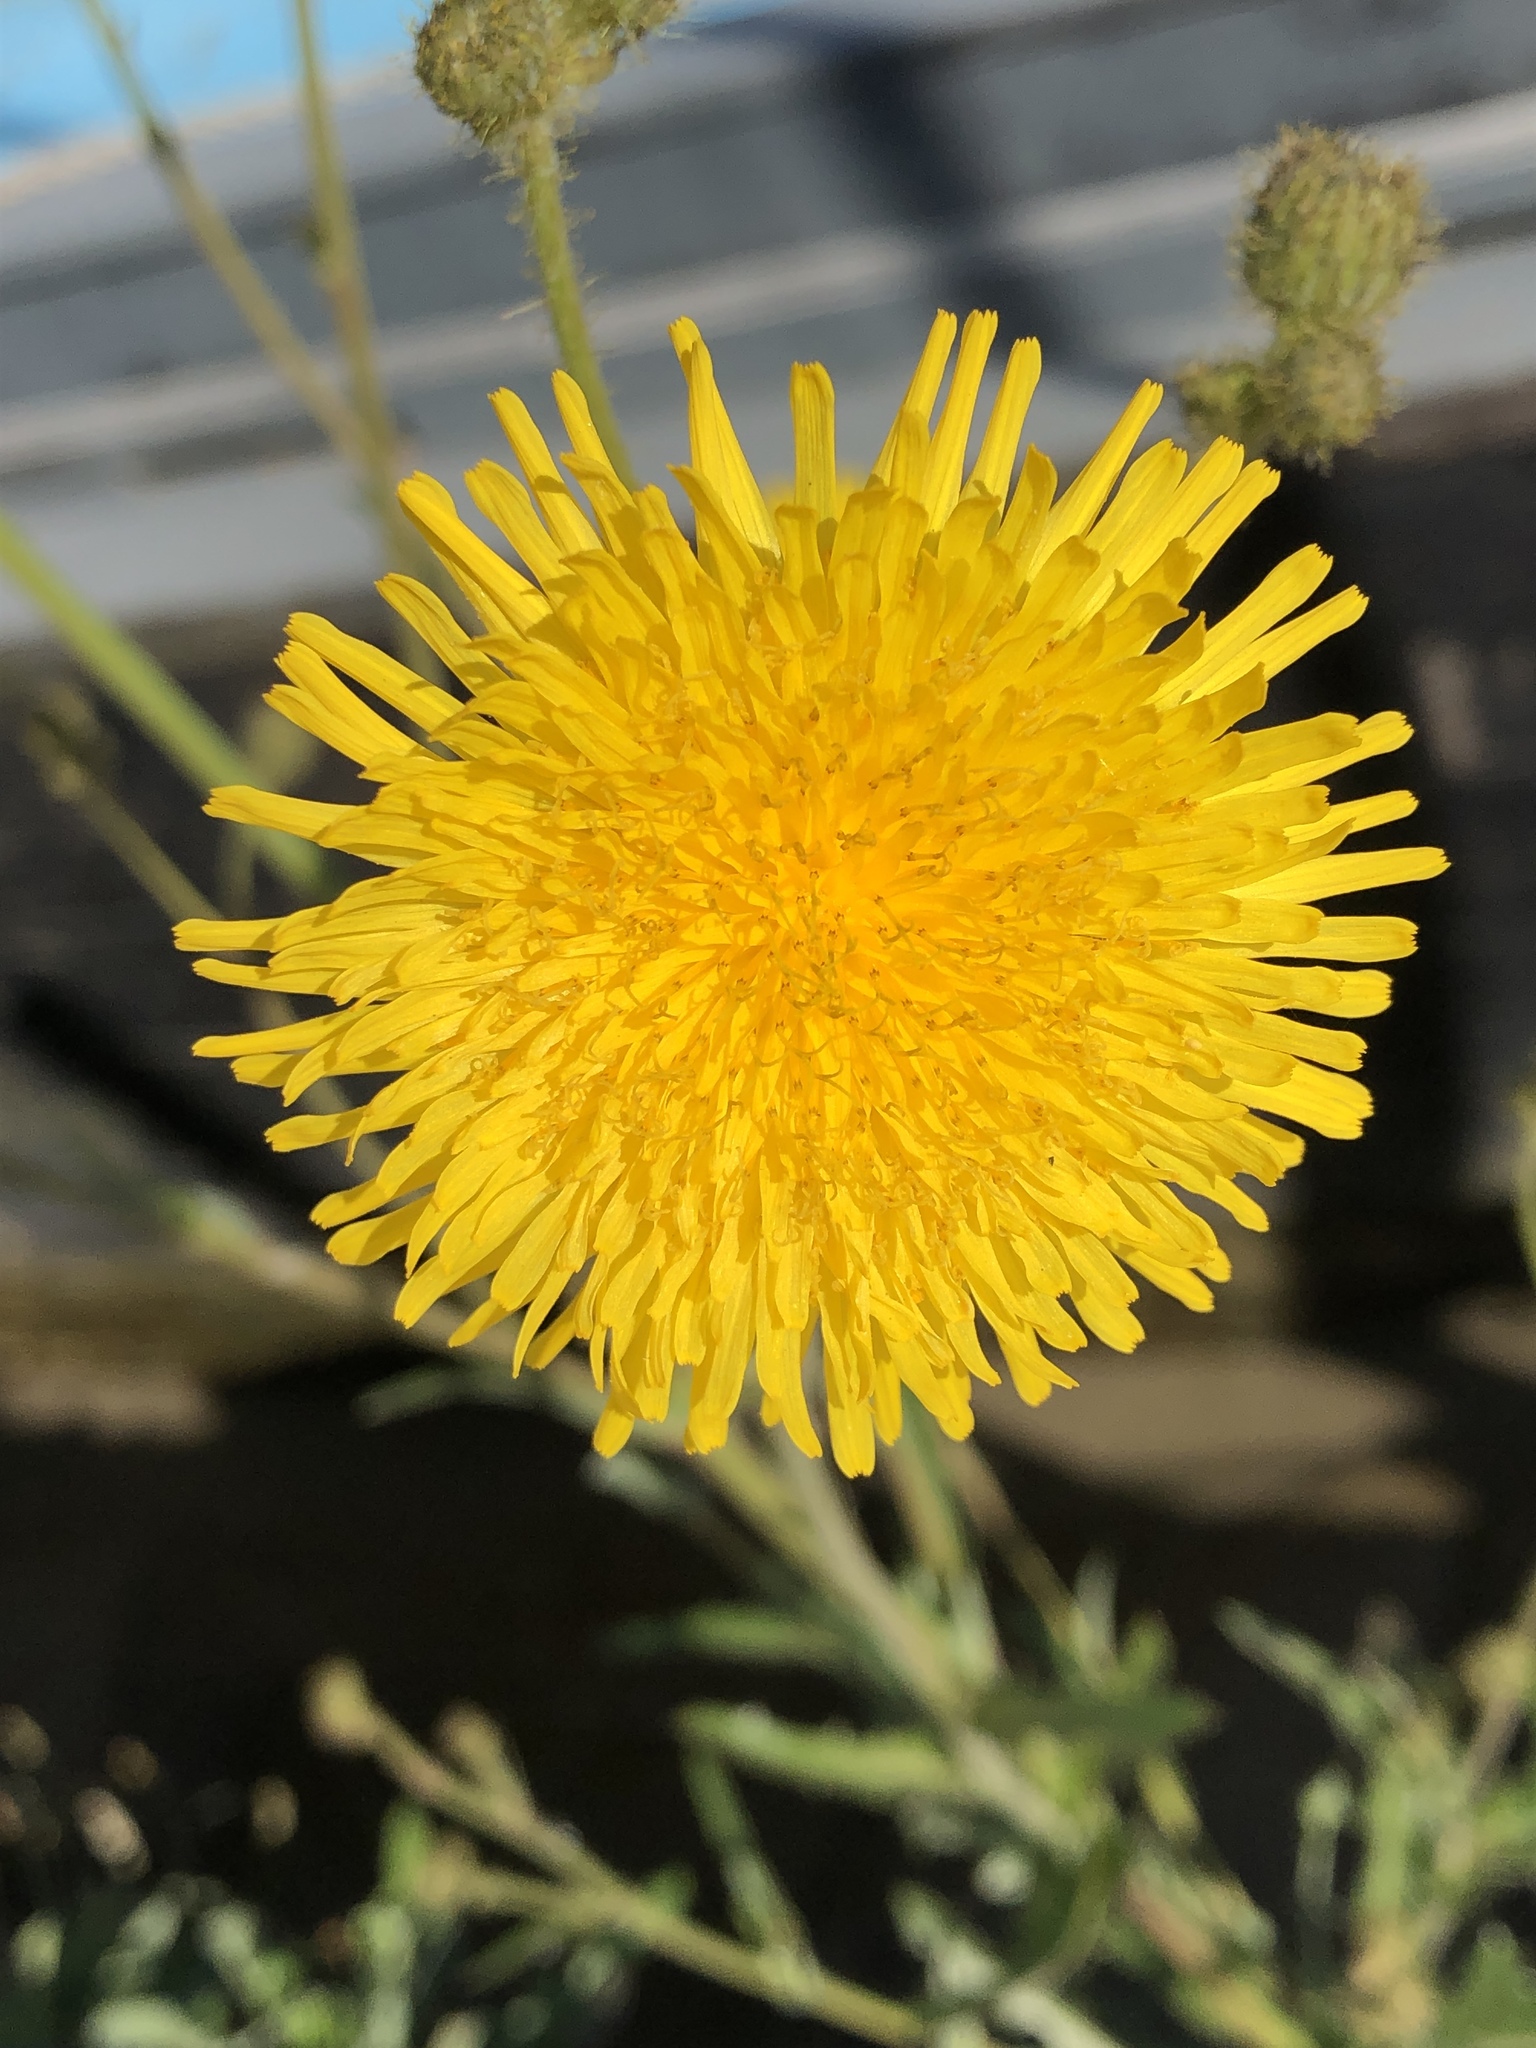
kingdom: Plantae
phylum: Tracheophyta
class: Magnoliopsida
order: Asterales
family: Asteraceae
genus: Sonchus
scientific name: Sonchus arvensis
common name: Perennial sow-thistle
